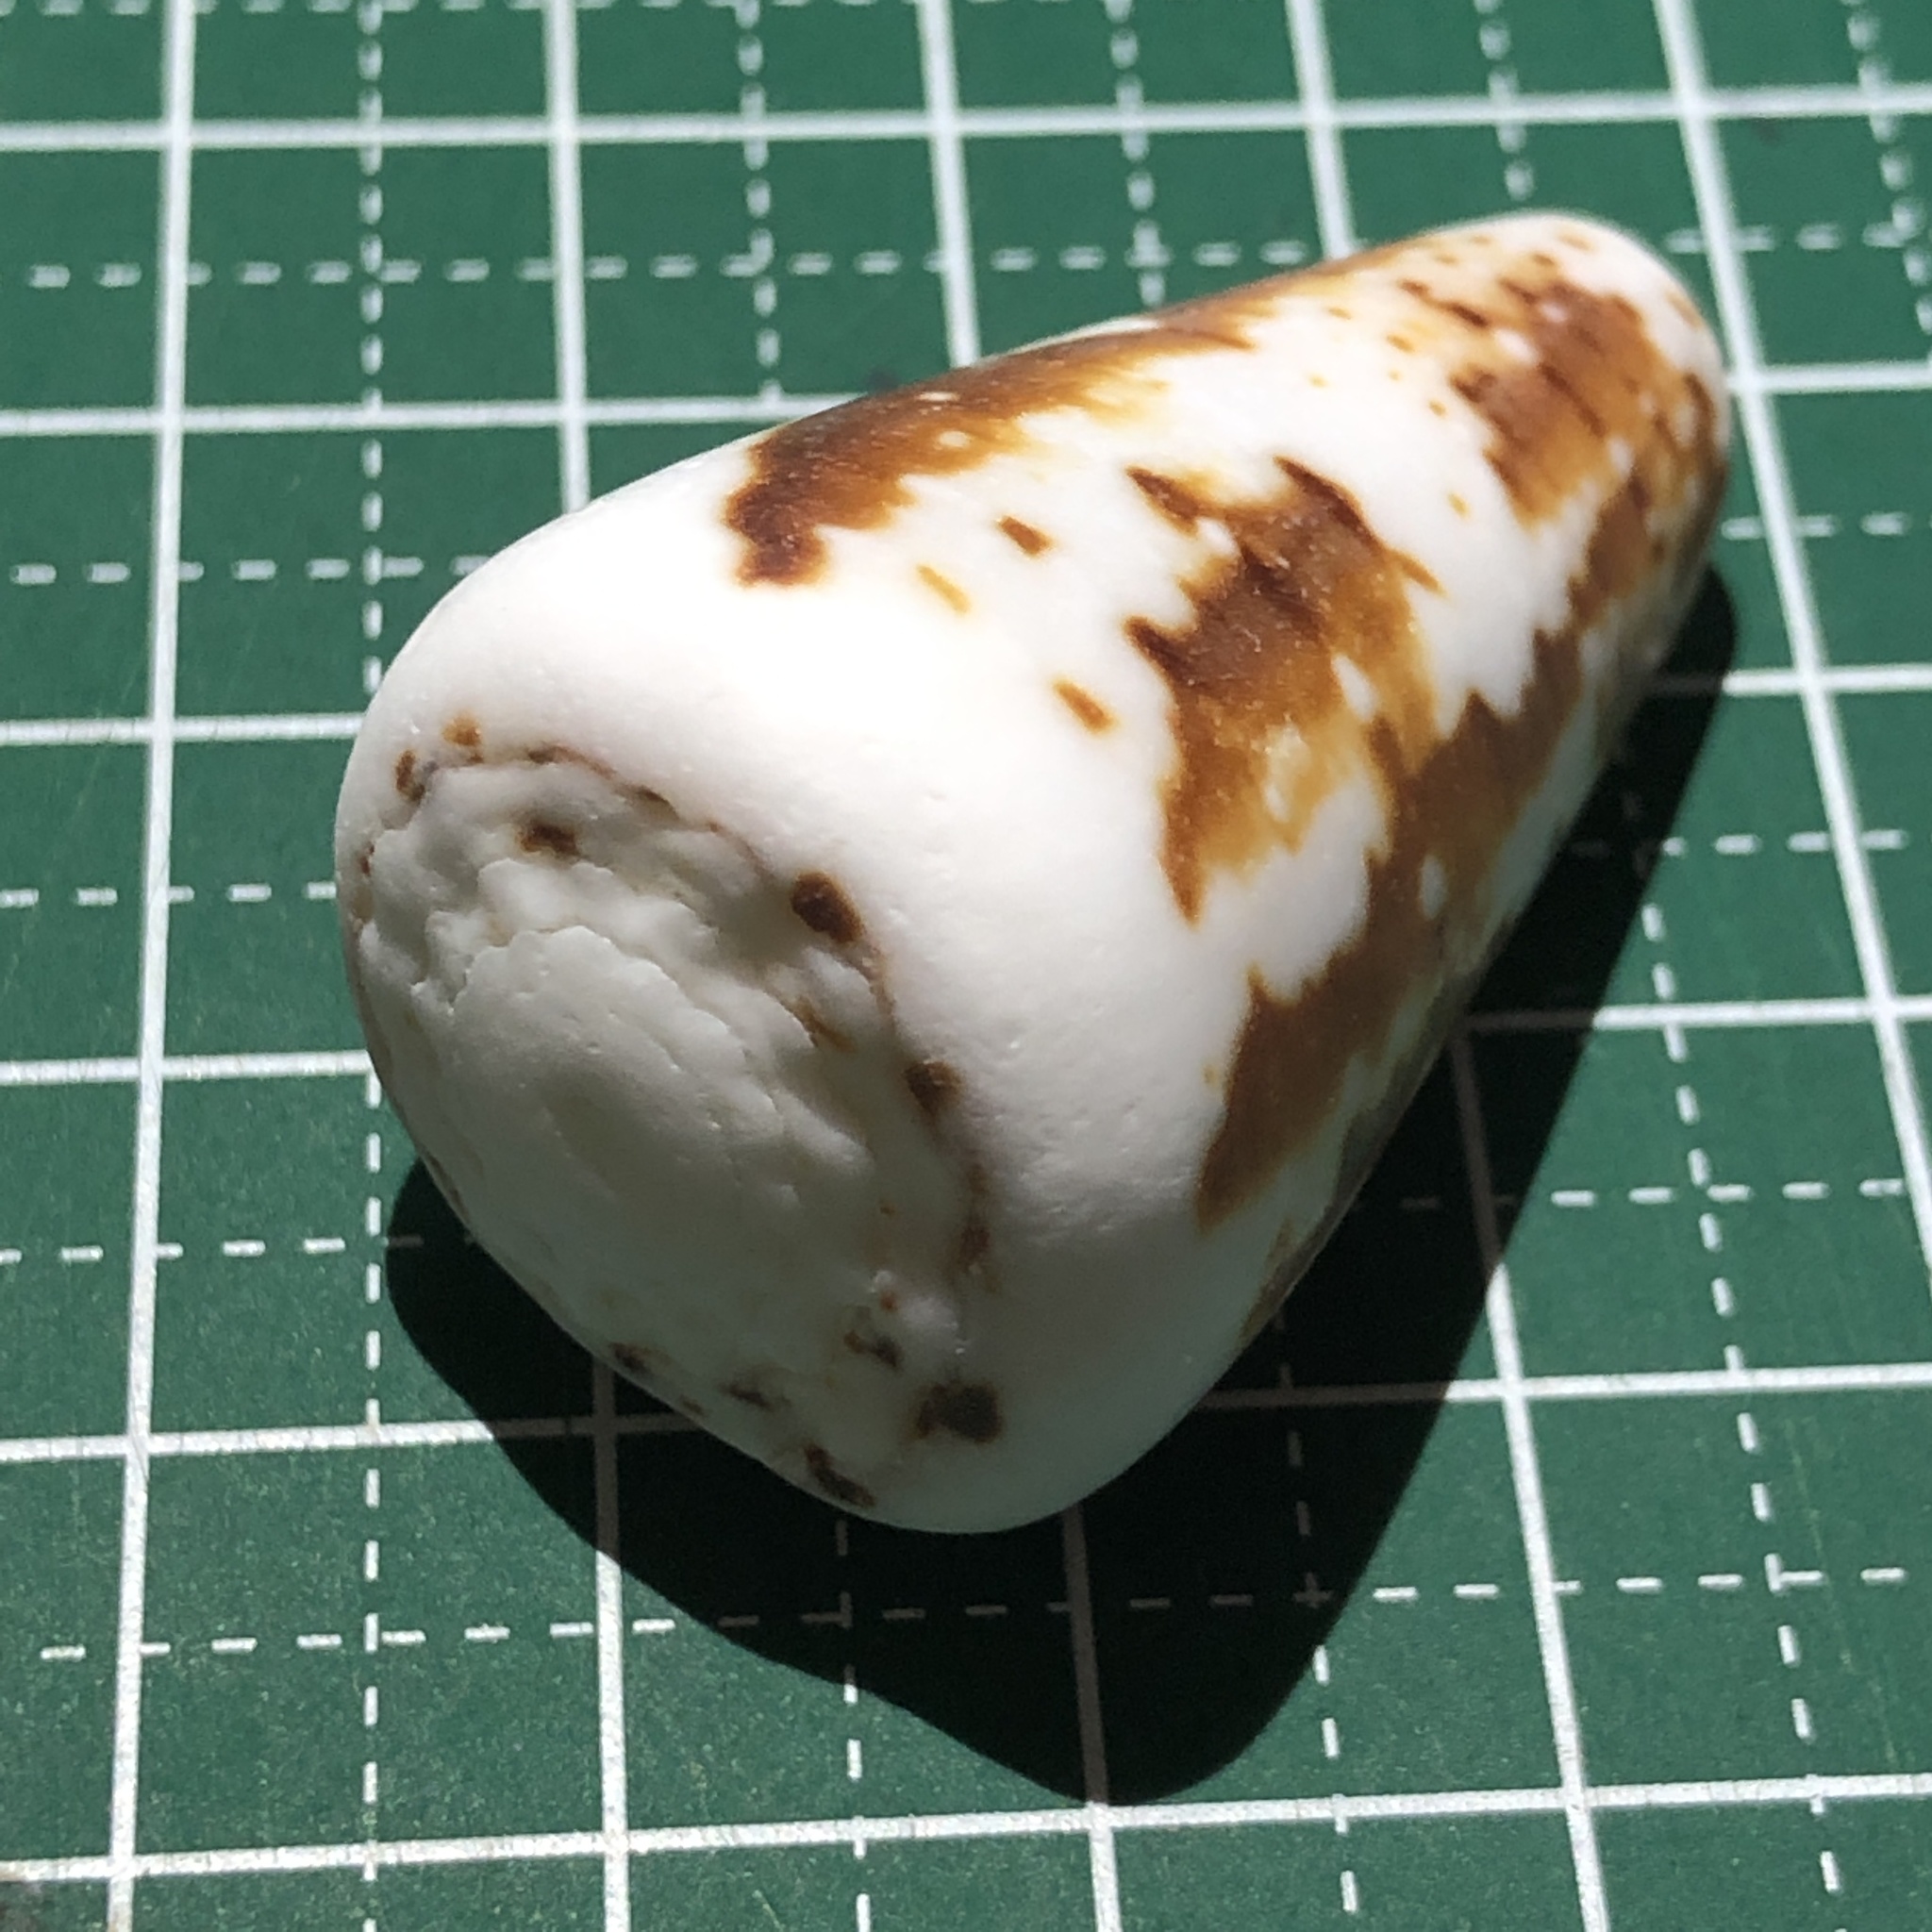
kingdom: Animalia
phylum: Mollusca
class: Gastropoda
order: Neogastropoda
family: Conidae
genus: Conus
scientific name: Conus imperialis
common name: Imperial cone
